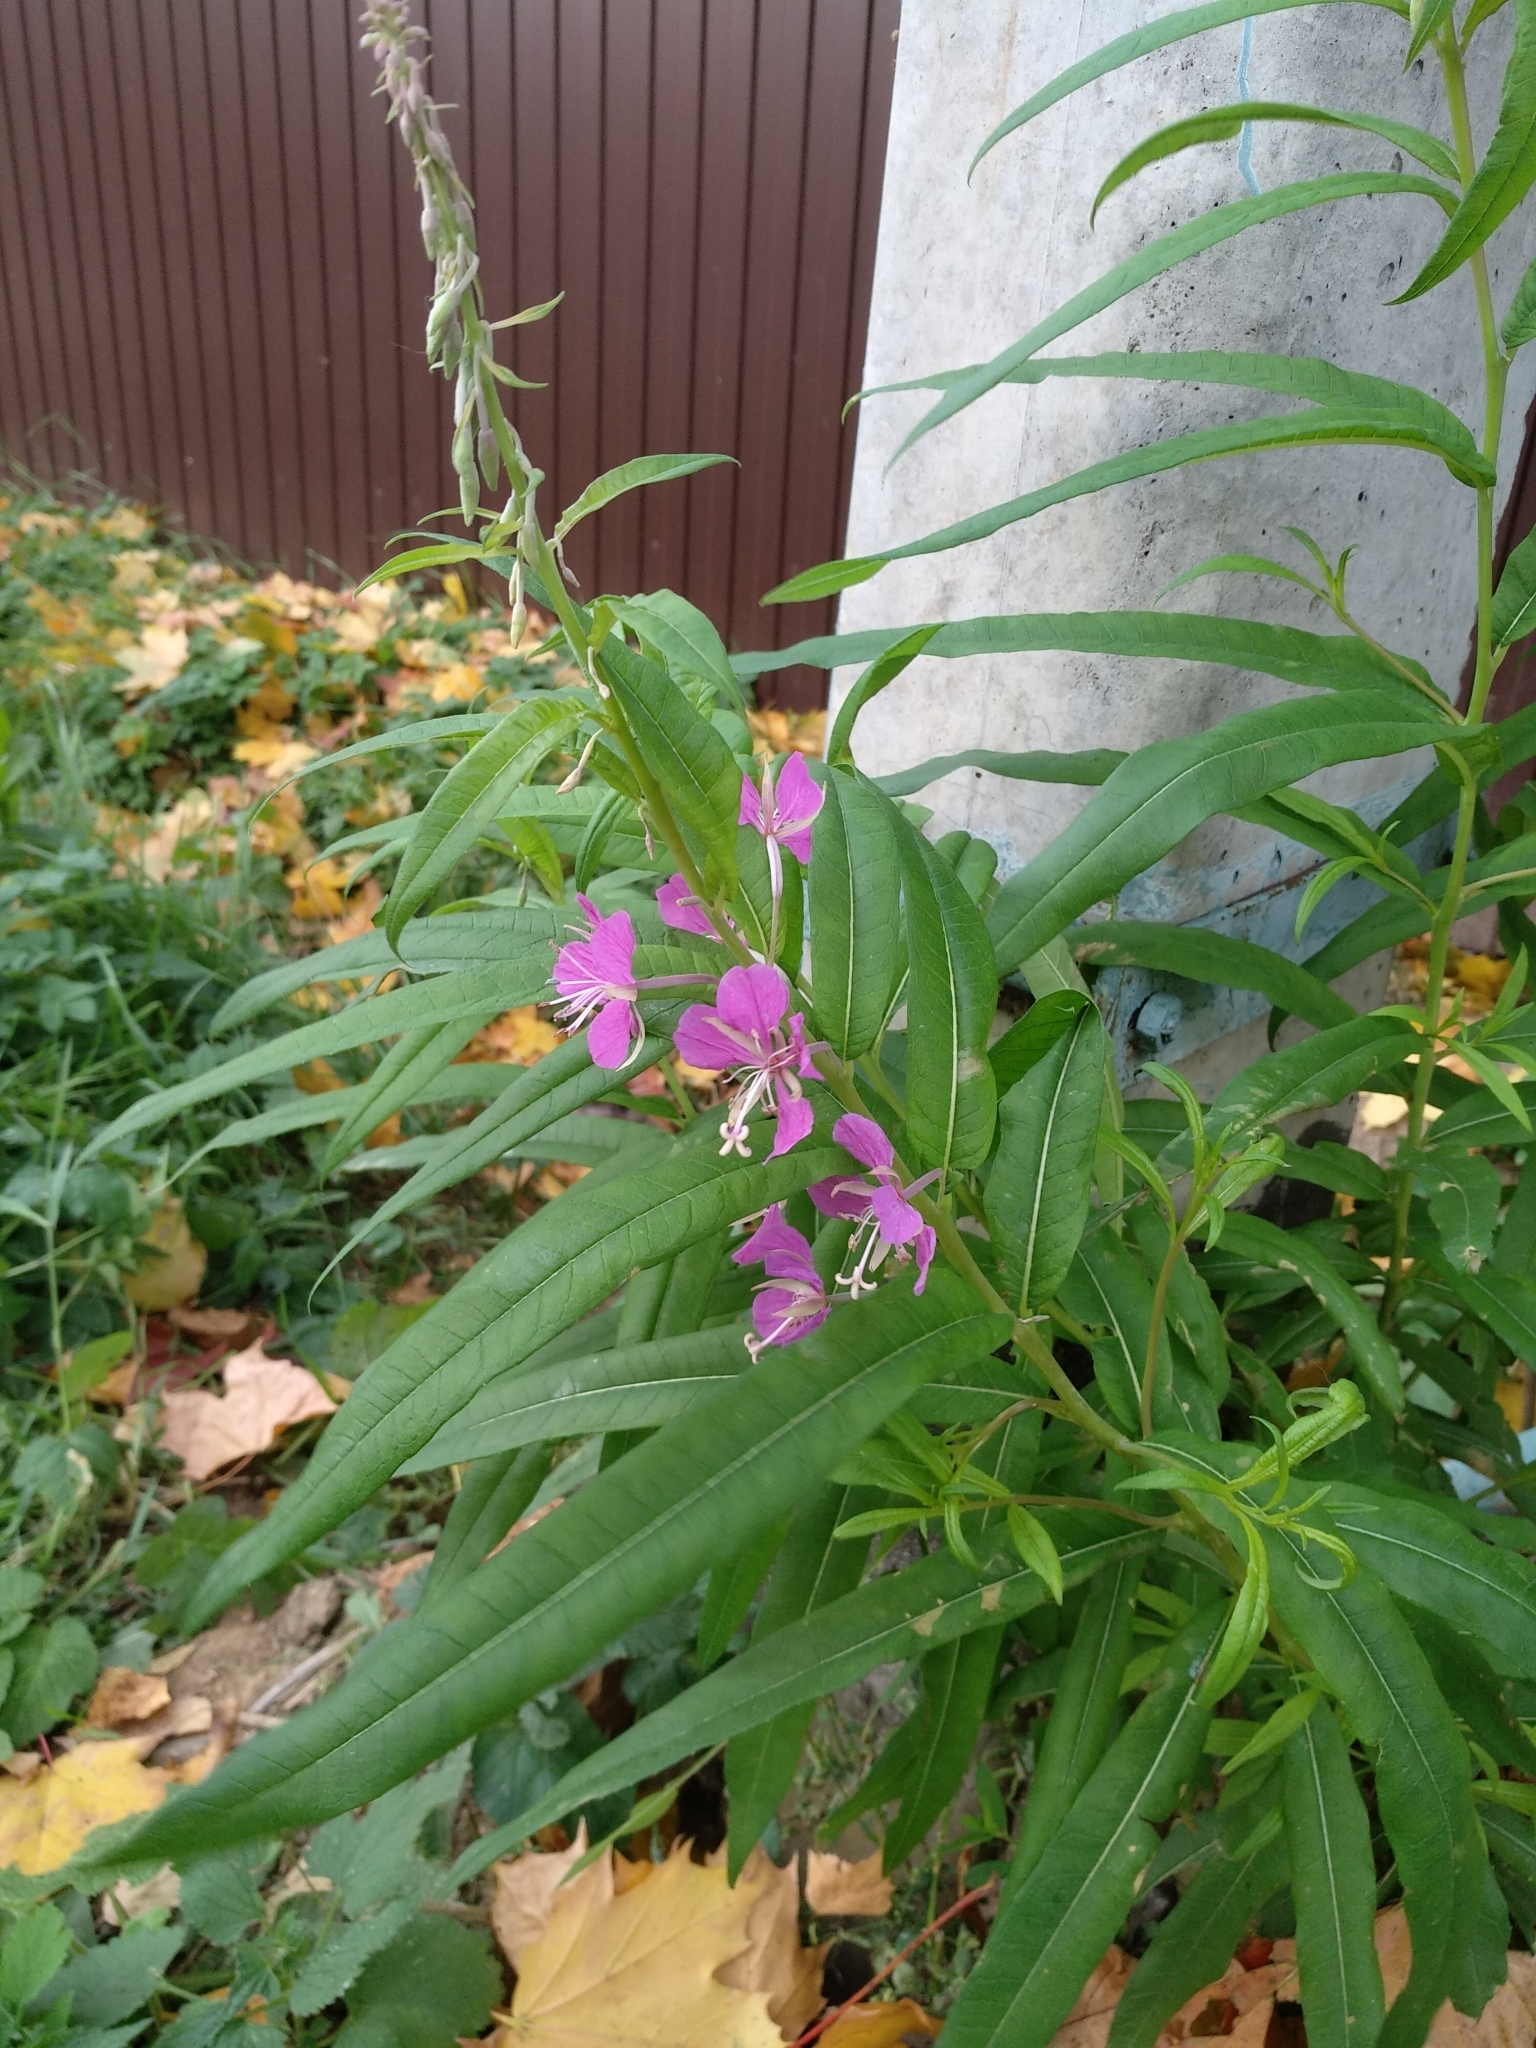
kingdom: Plantae
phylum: Tracheophyta
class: Magnoliopsida
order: Myrtales
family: Onagraceae
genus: Chamaenerion
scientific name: Chamaenerion angustifolium
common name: Fireweed
